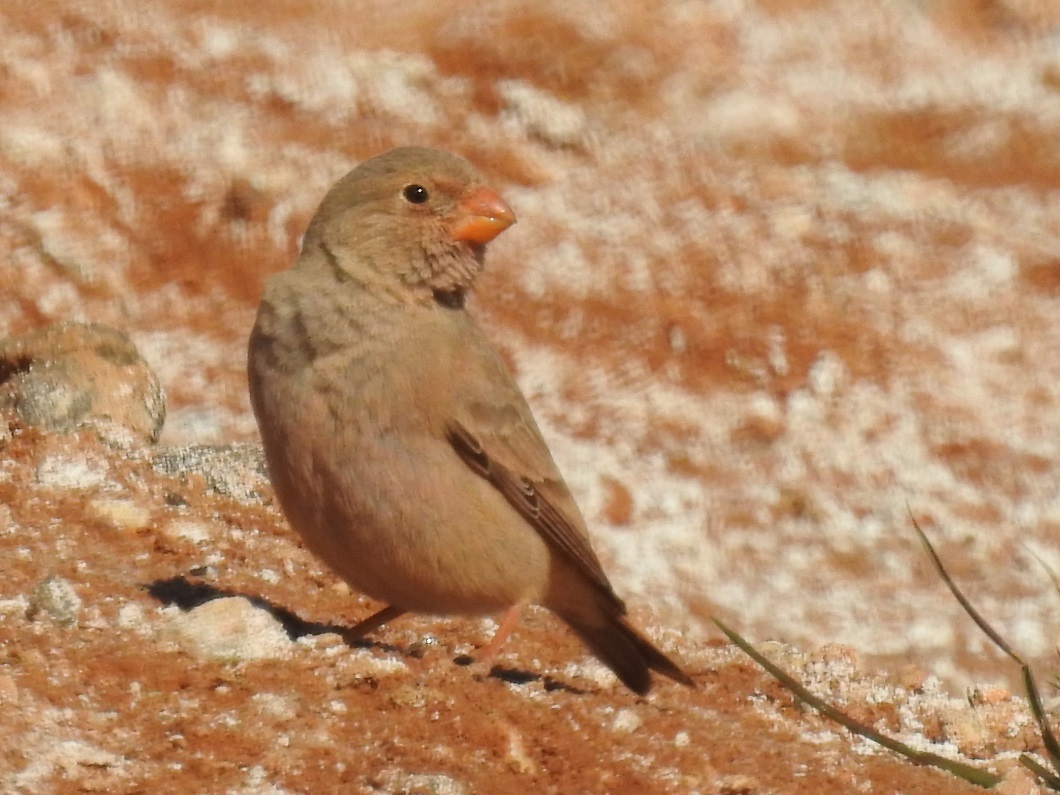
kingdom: Animalia
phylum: Chordata
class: Aves
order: Passeriformes
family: Fringillidae
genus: Bucanetes
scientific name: Bucanetes githagineus
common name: Trumpeter finch
